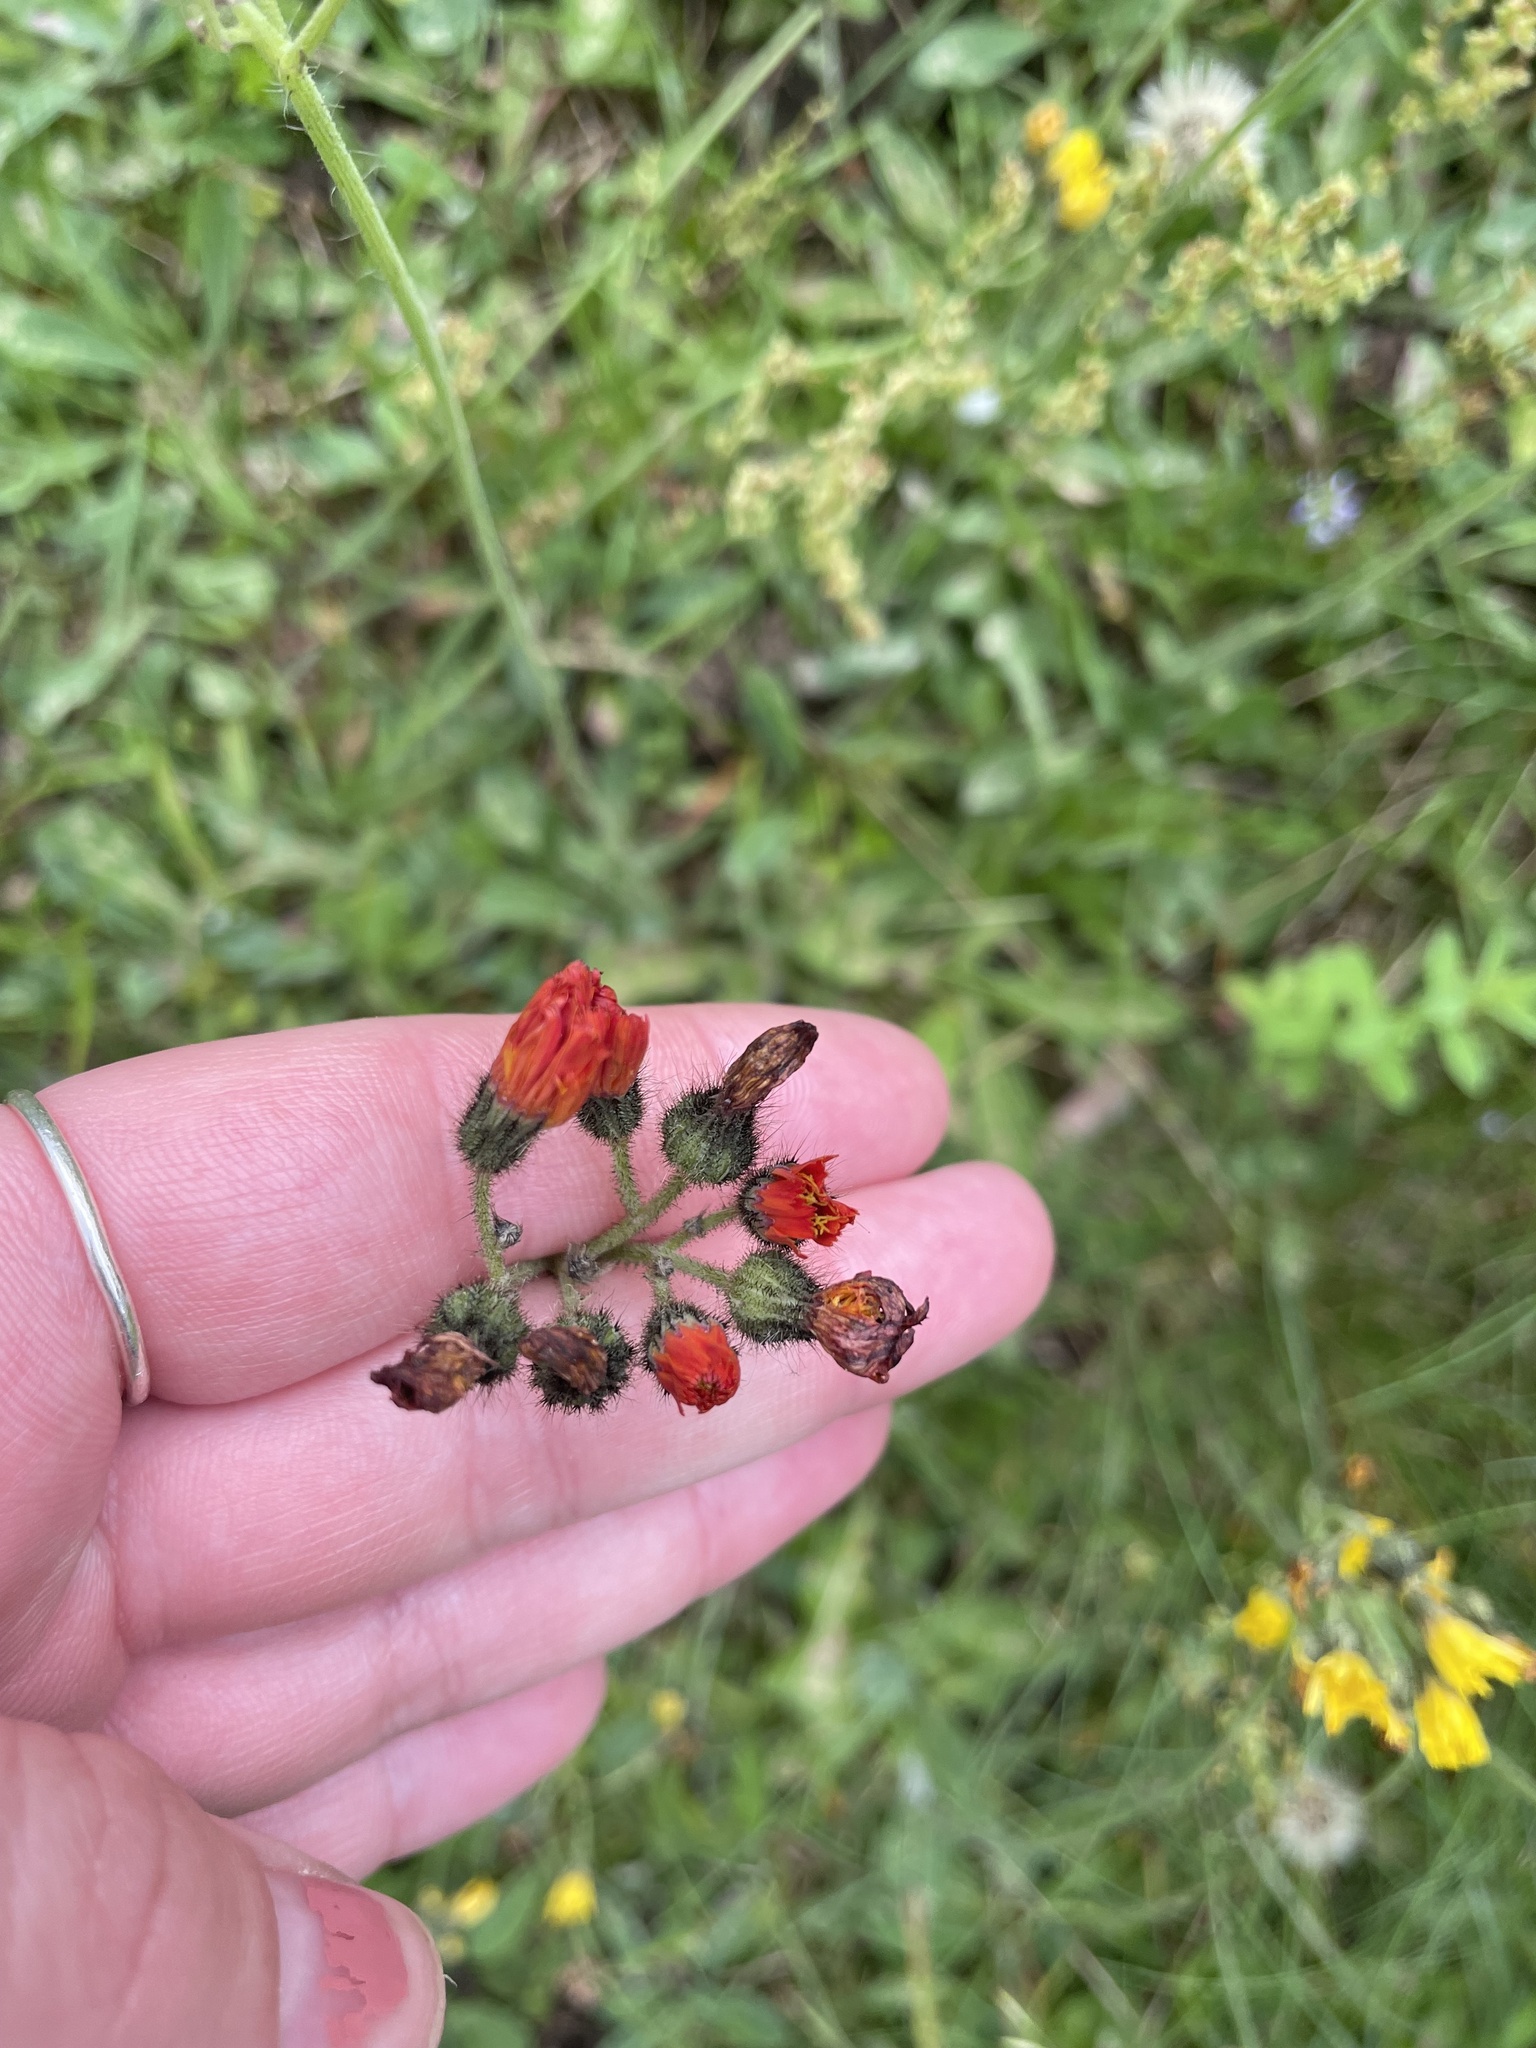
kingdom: Plantae
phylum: Tracheophyta
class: Magnoliopsida
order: Asterales
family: Asteraceae
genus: Pilosella
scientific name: Pilosella aurantiaca
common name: Fox-and-cubs
